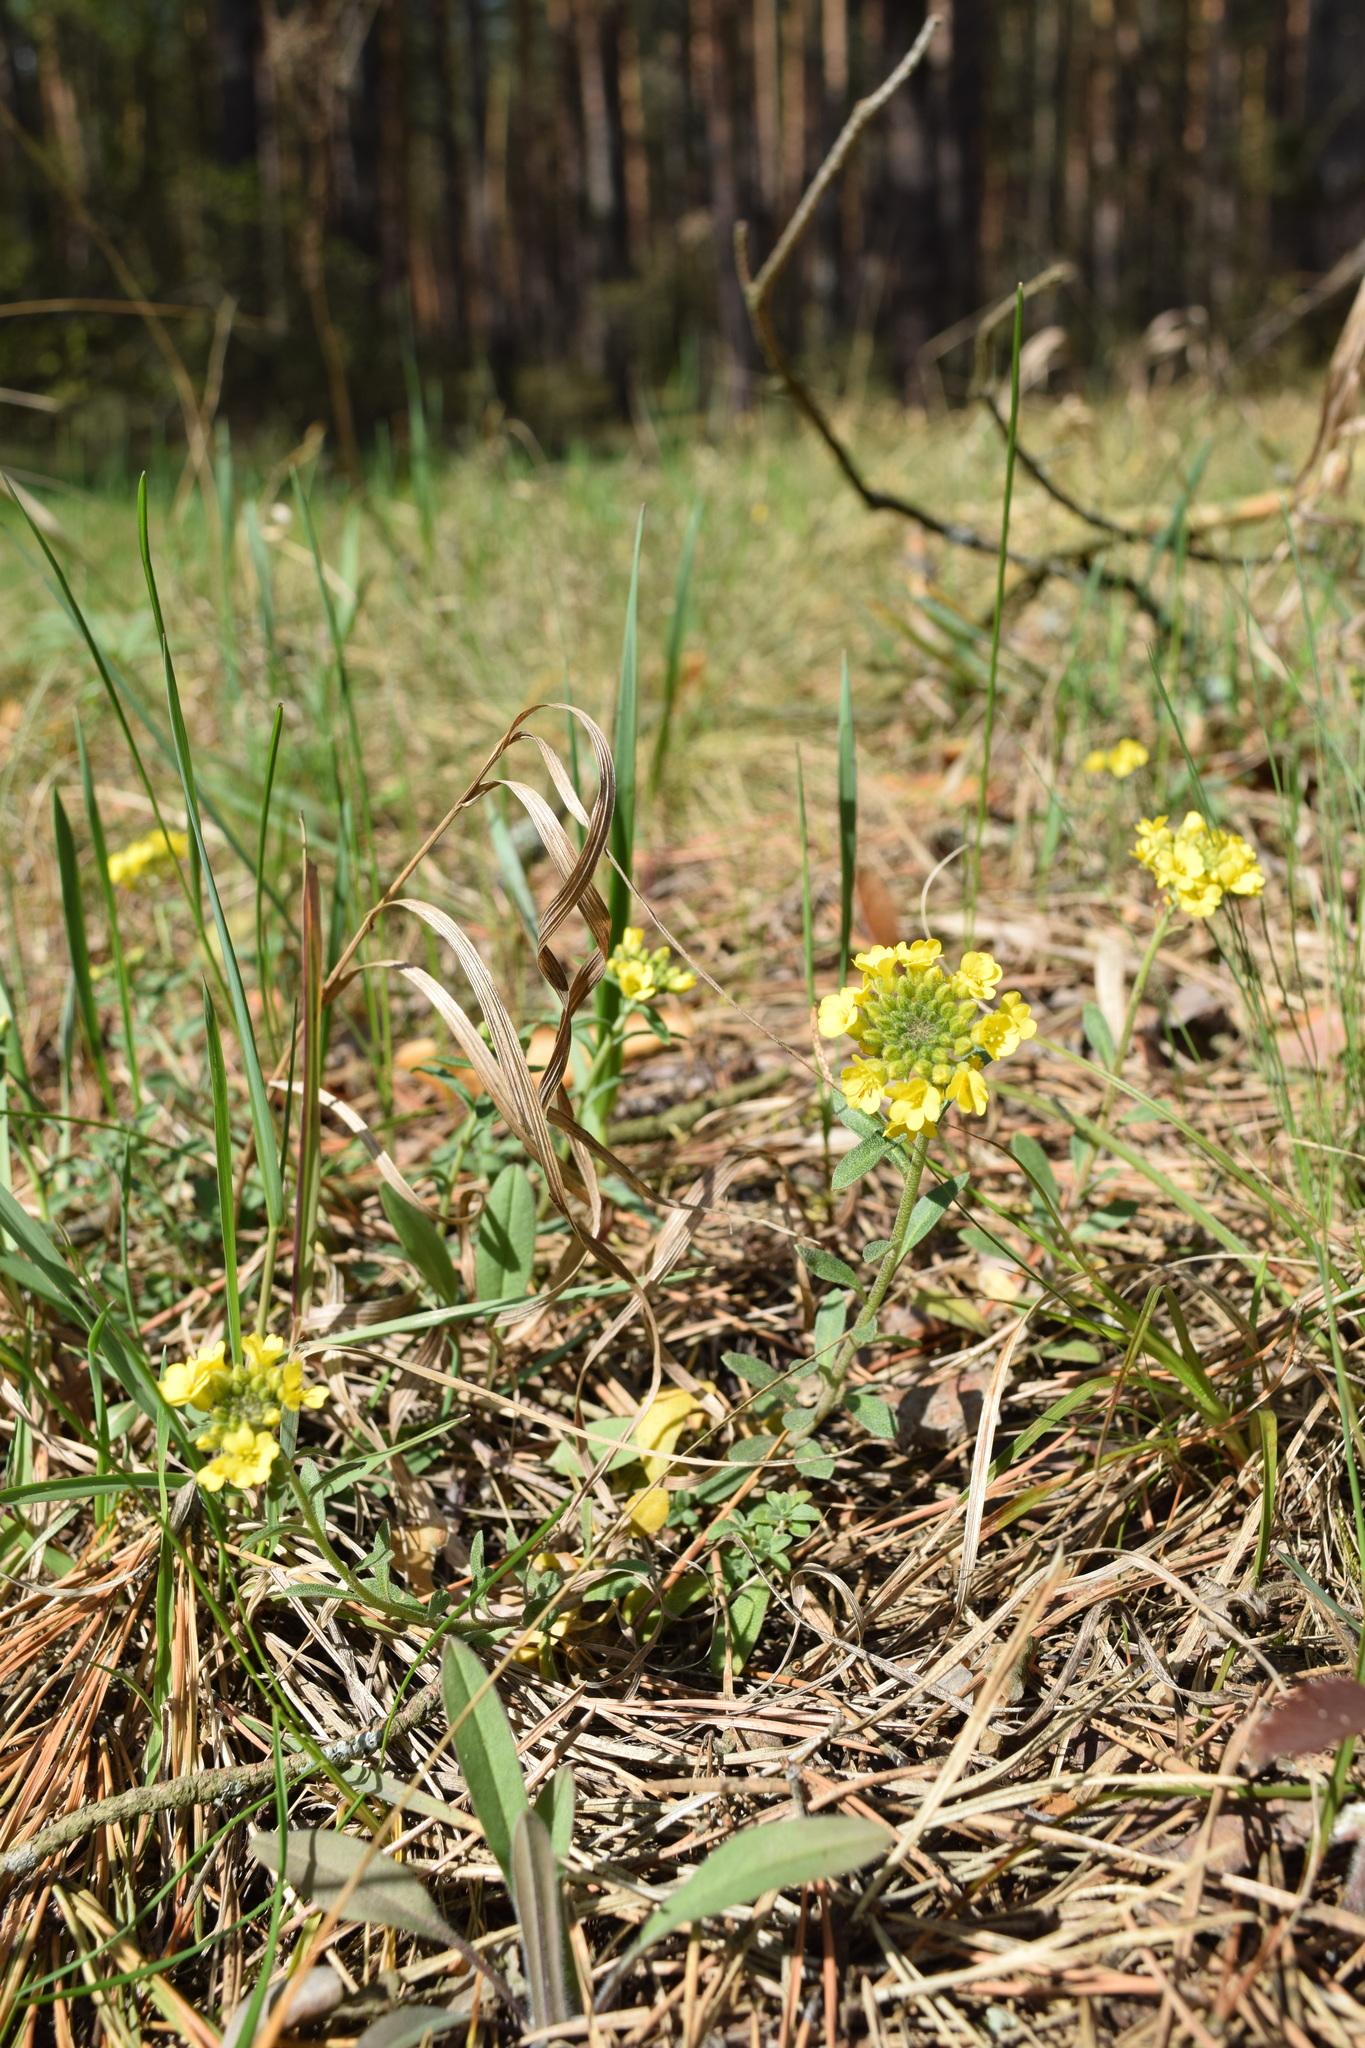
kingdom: Plantae
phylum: Tracheophyta
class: Magnoliopsida
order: Brassicales
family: Brassicaceae
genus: Alyssum
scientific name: Alyssum gmelinii
